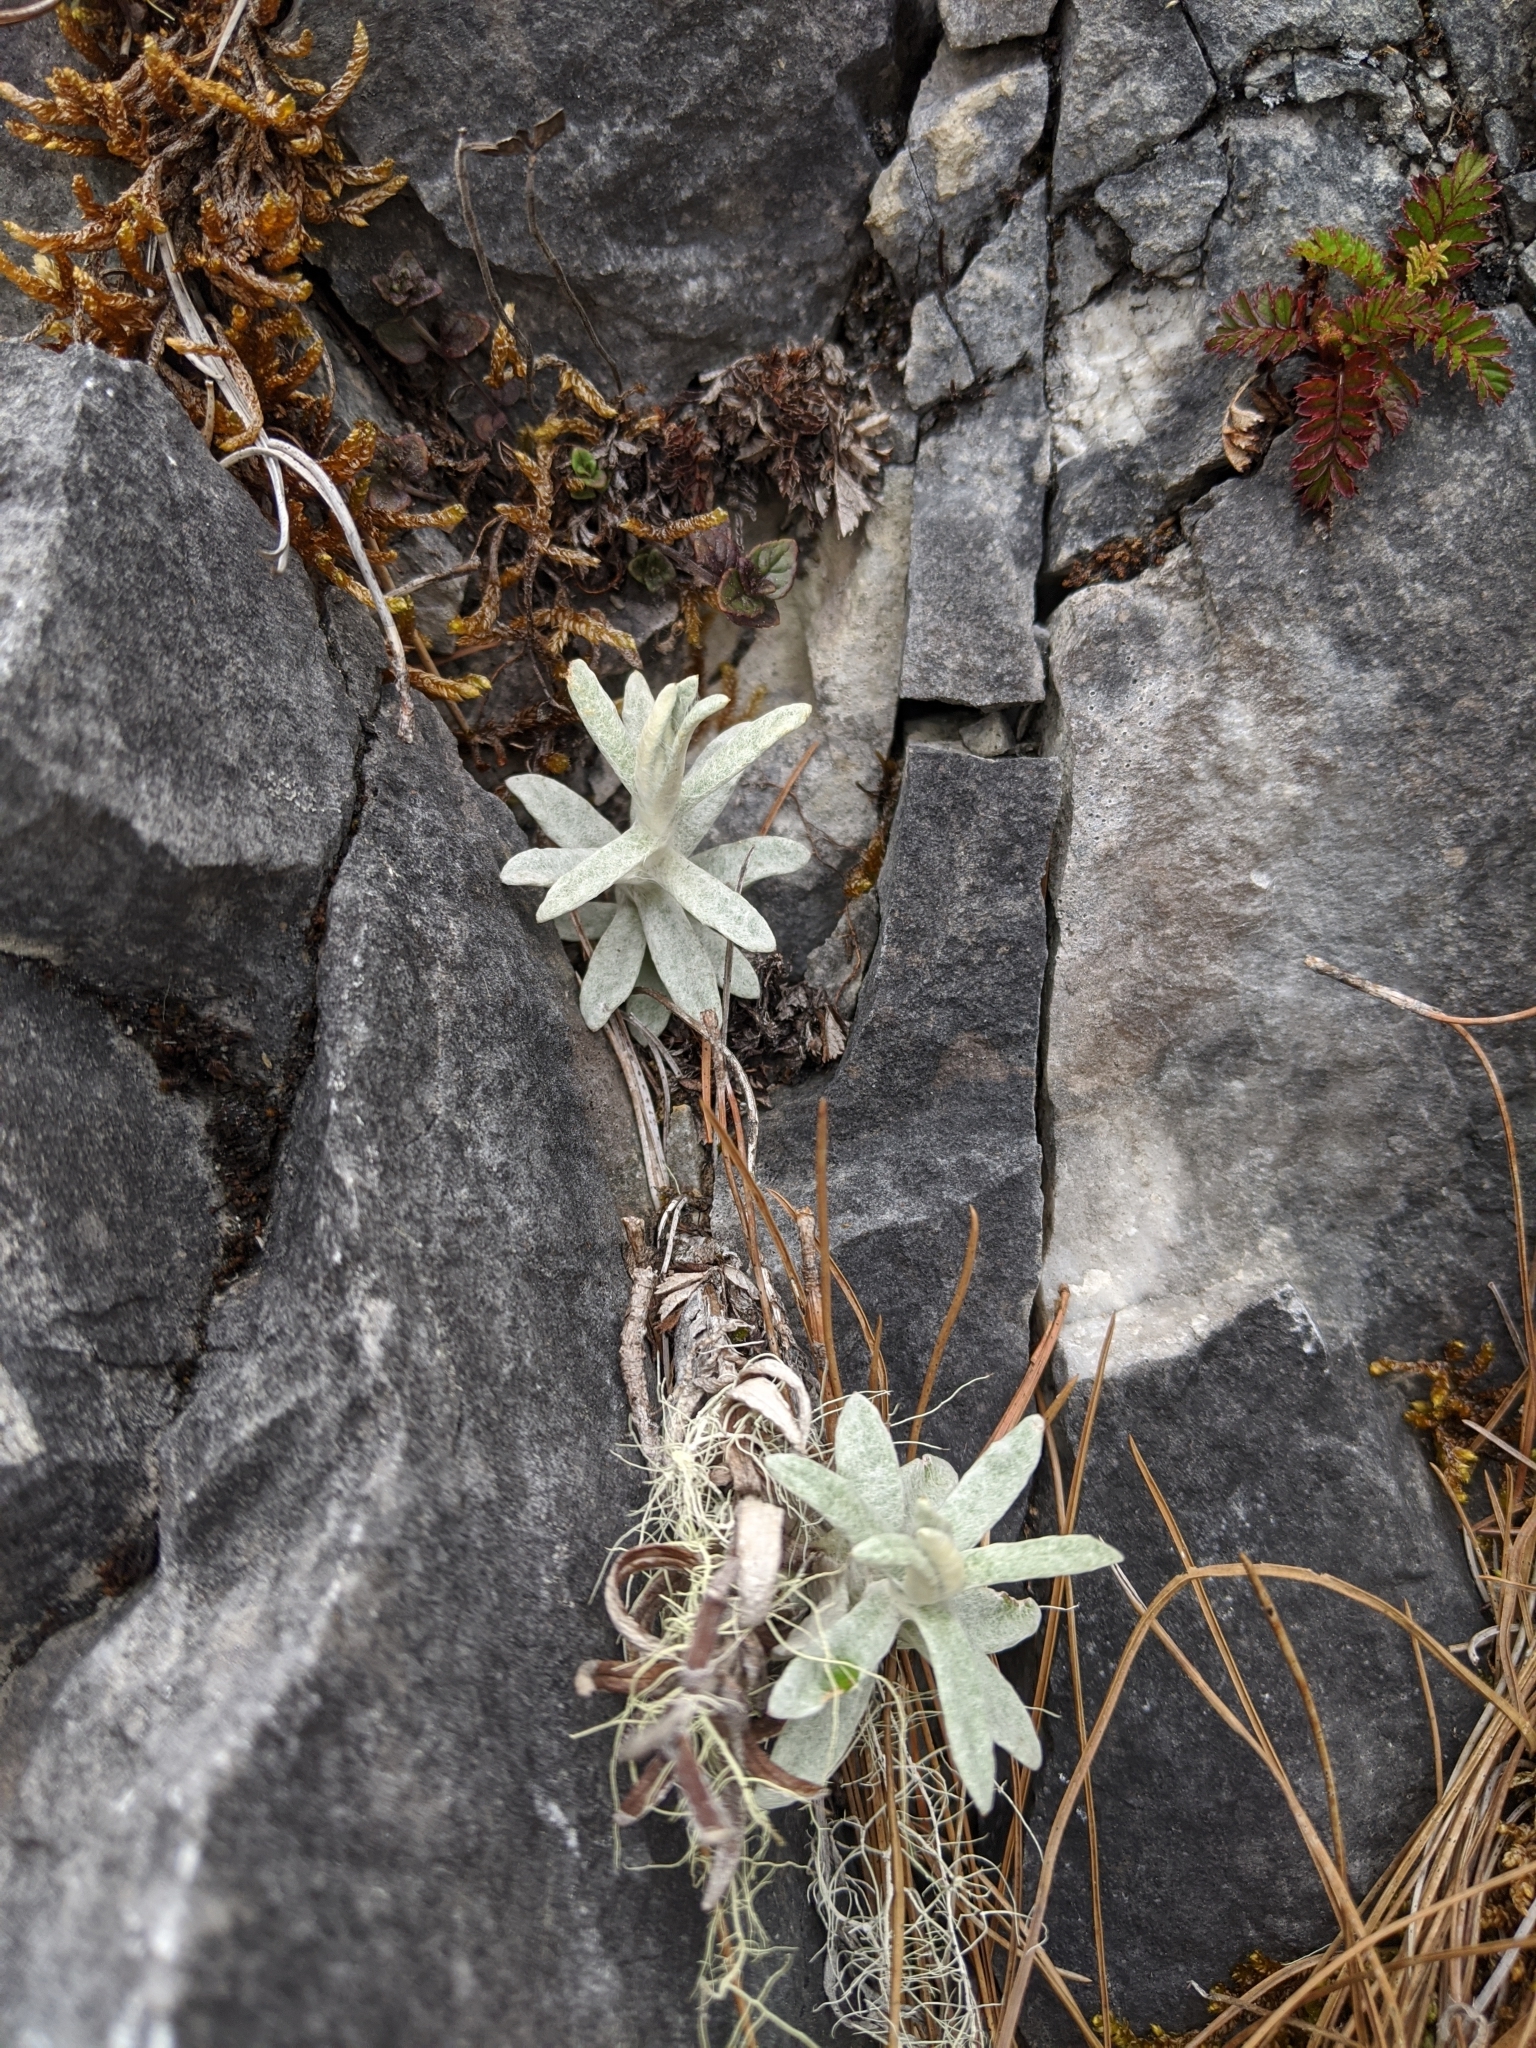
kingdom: Plantae
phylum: Tracheophyta
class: Magnoliopsida
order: Asterales
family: Asteraceae
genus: Anaphalis
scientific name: Anaphalis morrisonicola
